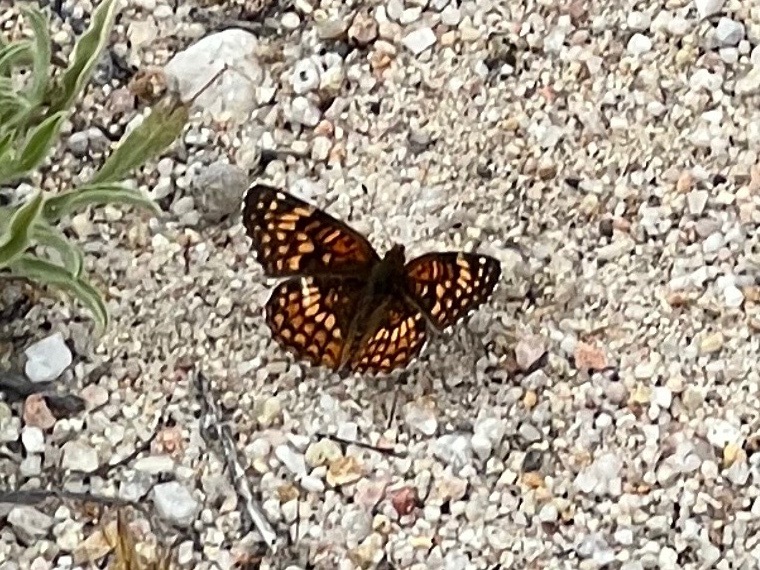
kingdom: Animalia
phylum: Arthropoda
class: Insecta
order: Lepidoptera
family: Nymphalidae
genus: Chlosyne
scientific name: Chlosyne gabbii
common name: Gabb's checkerspot
